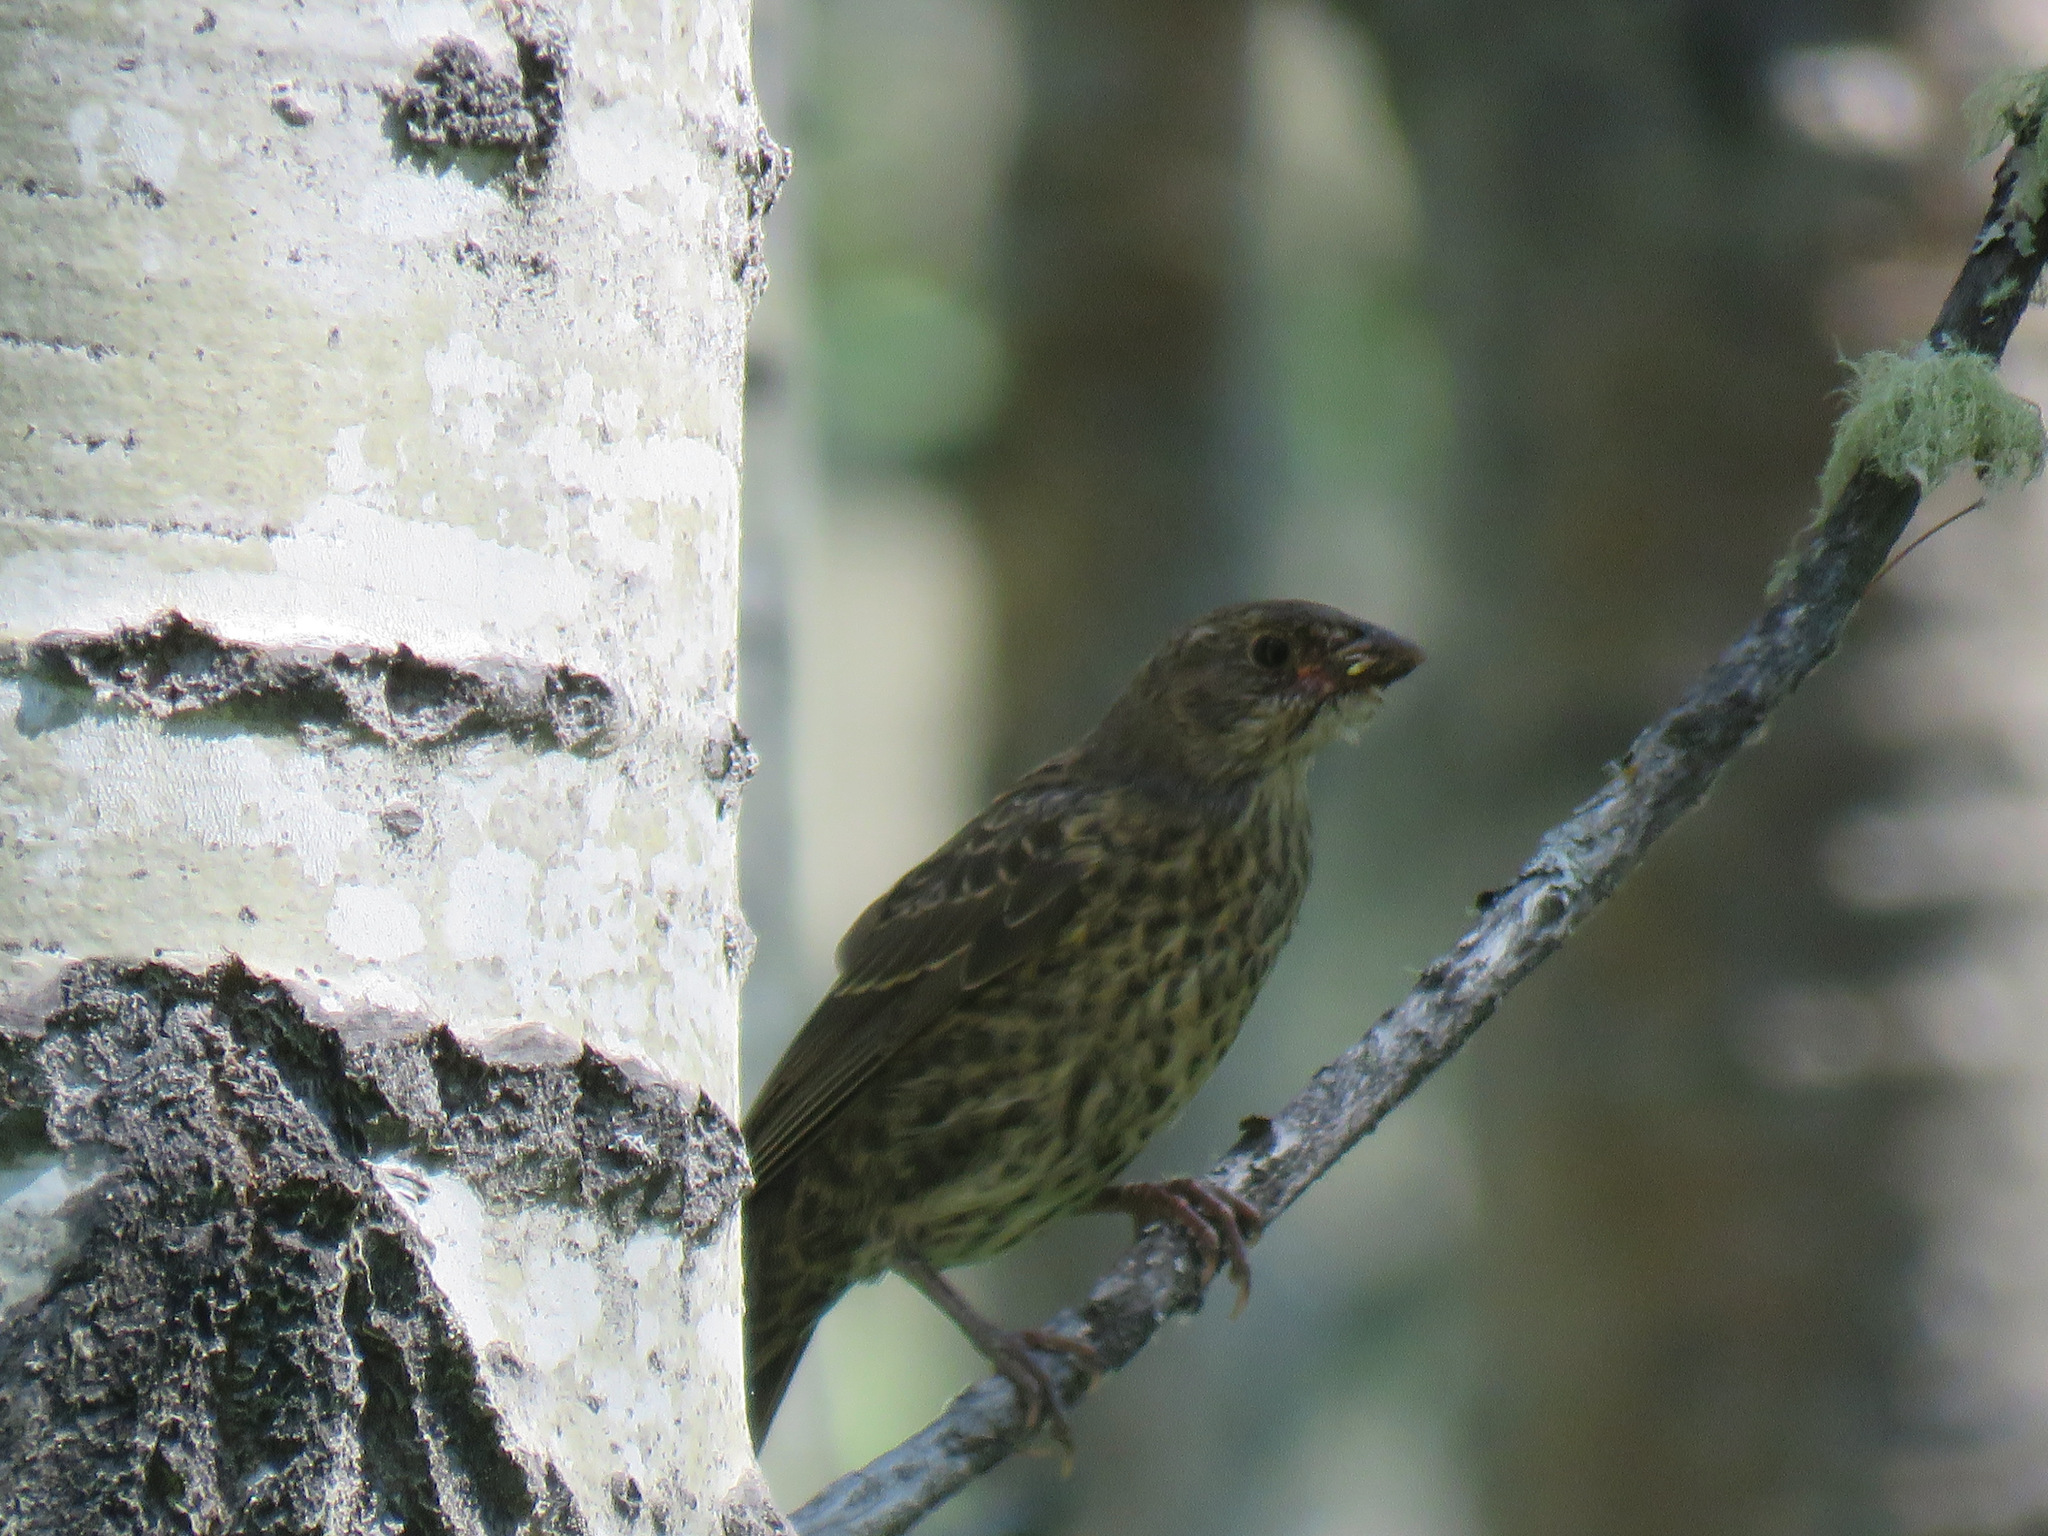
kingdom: Animalia
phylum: Chordata
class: Aves
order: Passeriformes
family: Icteridae
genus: Molothrus
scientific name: Molothrus ater
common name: Brown-headed cowbird
